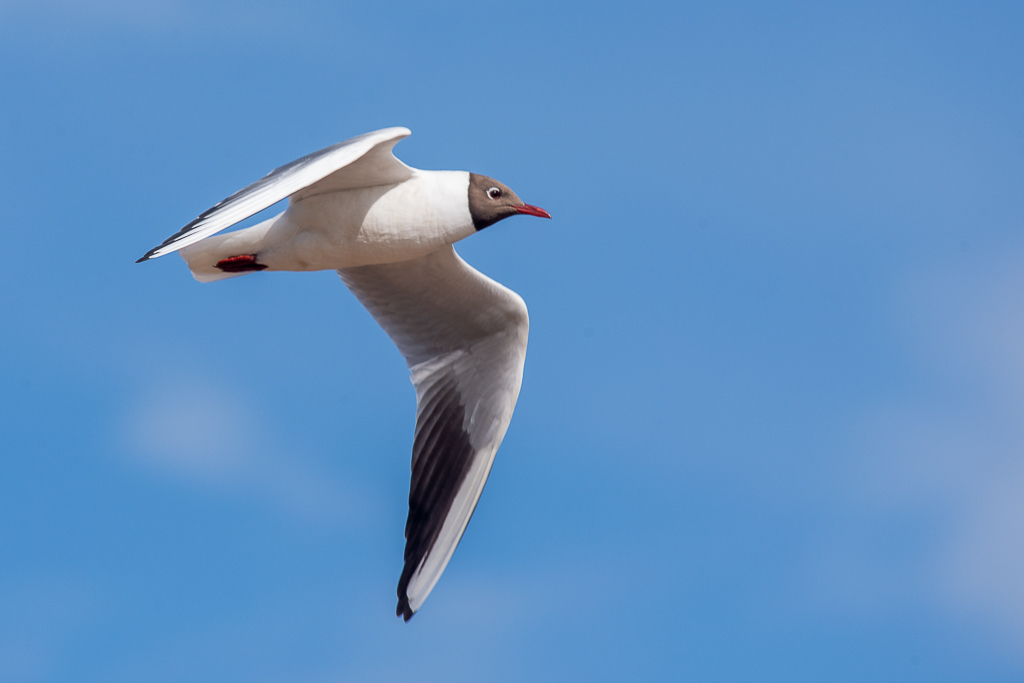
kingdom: Animalia
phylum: Chordata
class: Aves
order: Charadriiformes
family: Laridae
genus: Chroicocephalus
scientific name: Chroicocephalus ridibundus
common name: Black-headed gull
